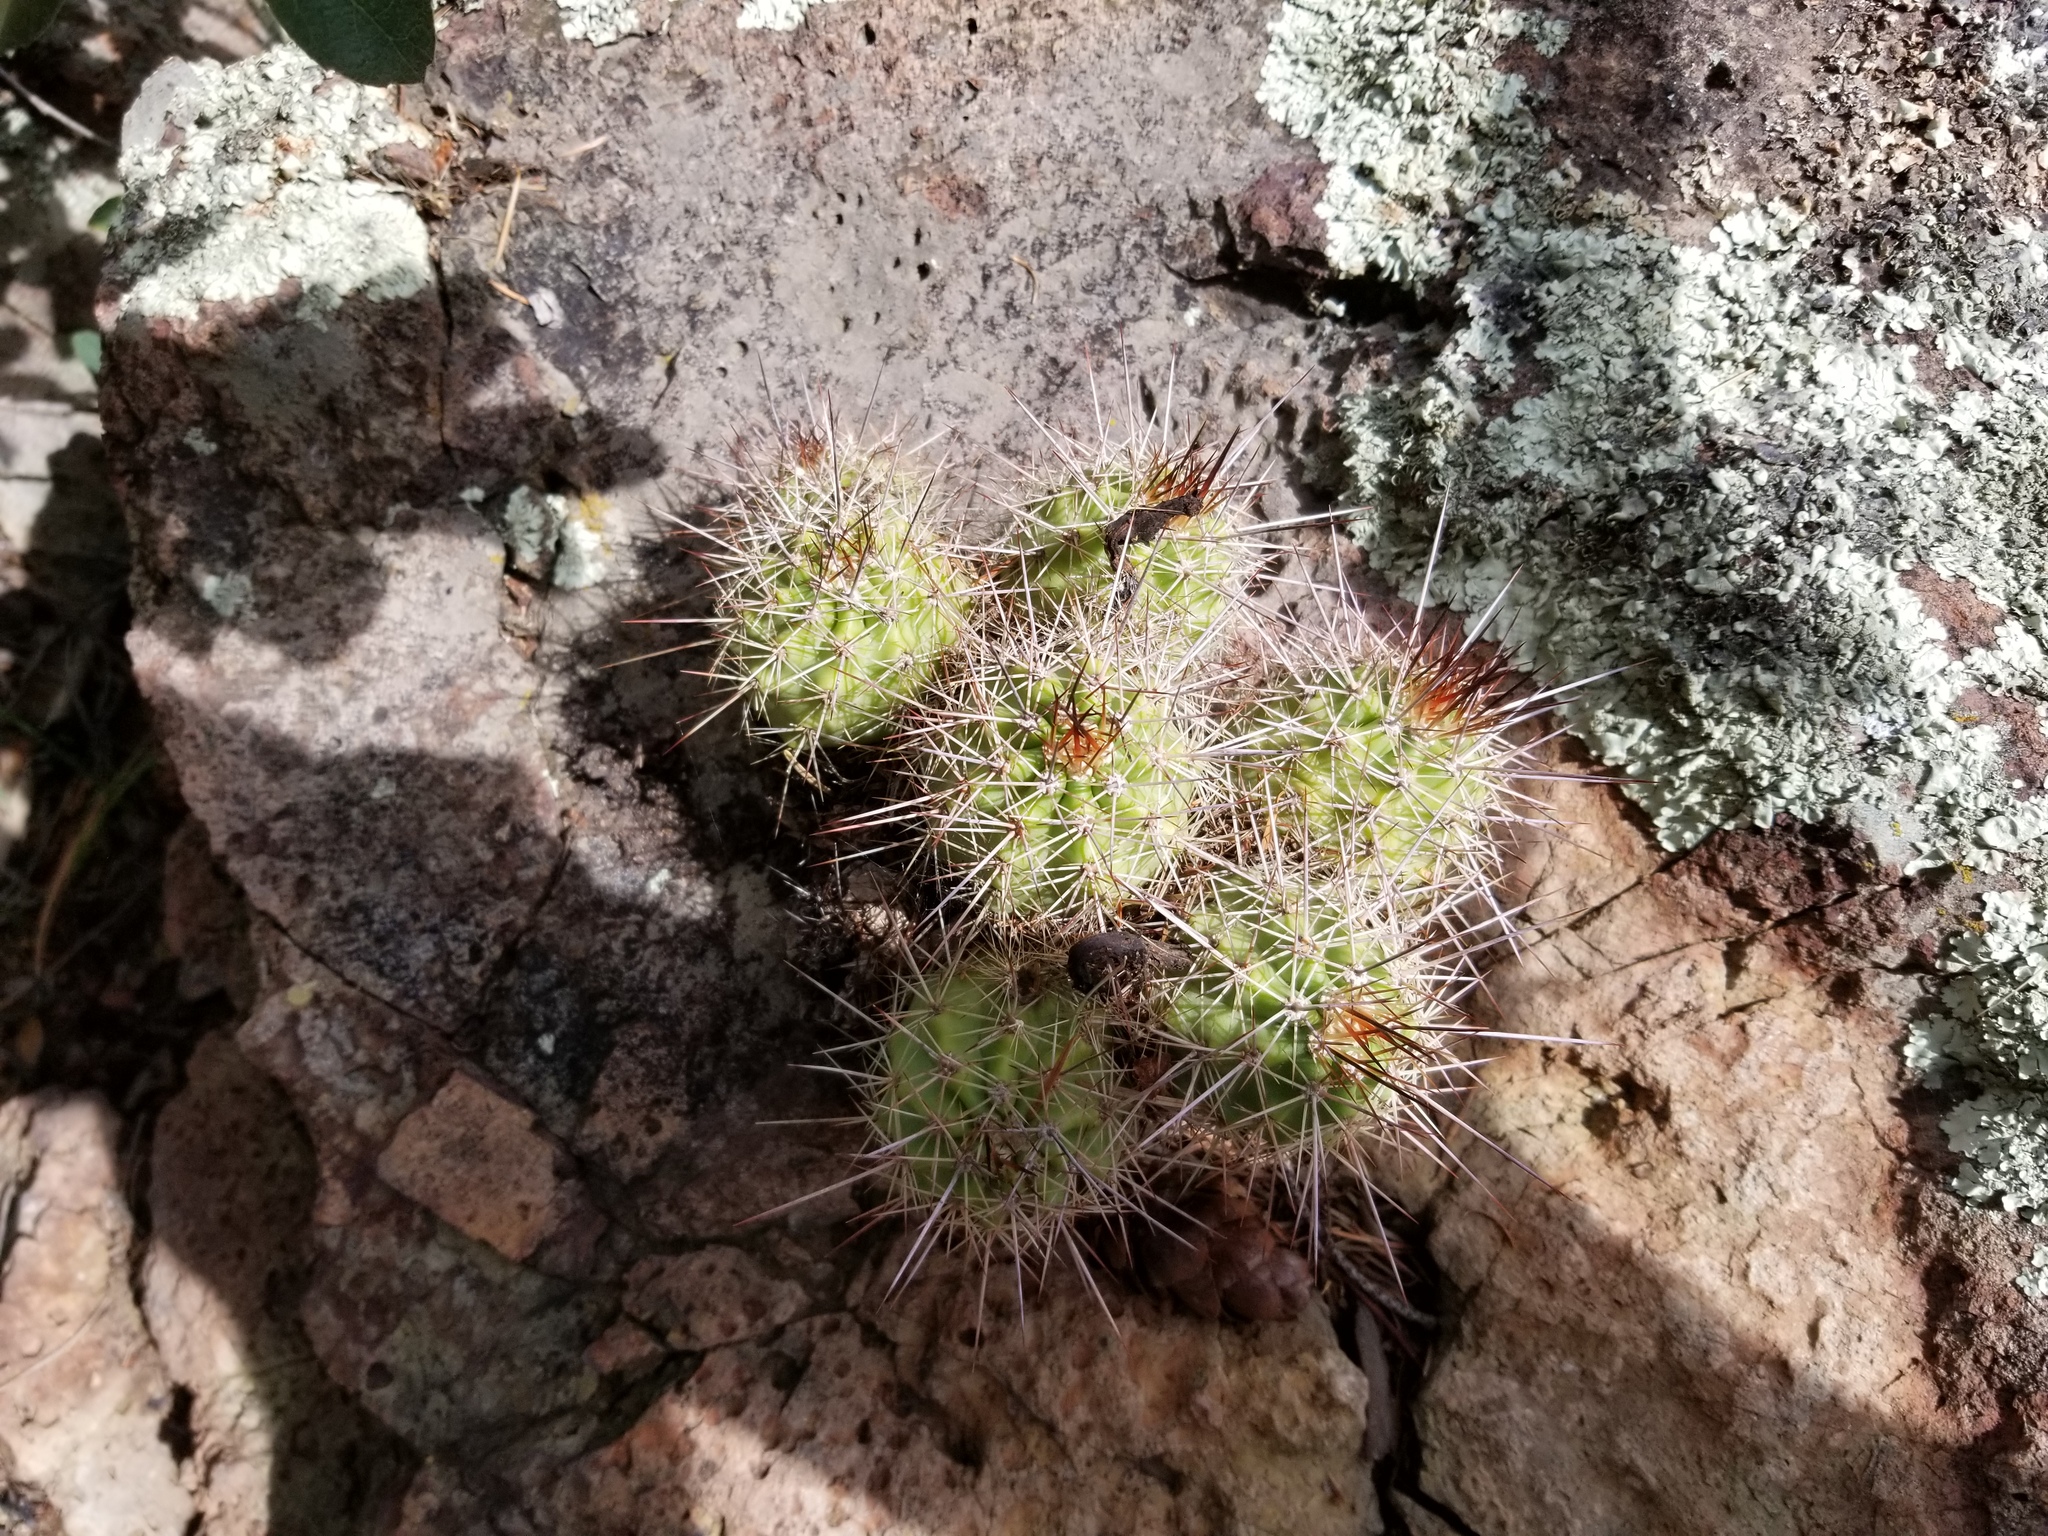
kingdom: Plantae
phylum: Tracheophyta
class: Magnoliopsida
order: Caryophyllales
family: Cactaceae
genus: Echinocereus
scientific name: Echinocereus coccineus
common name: Scarlet hedgehog cactus
